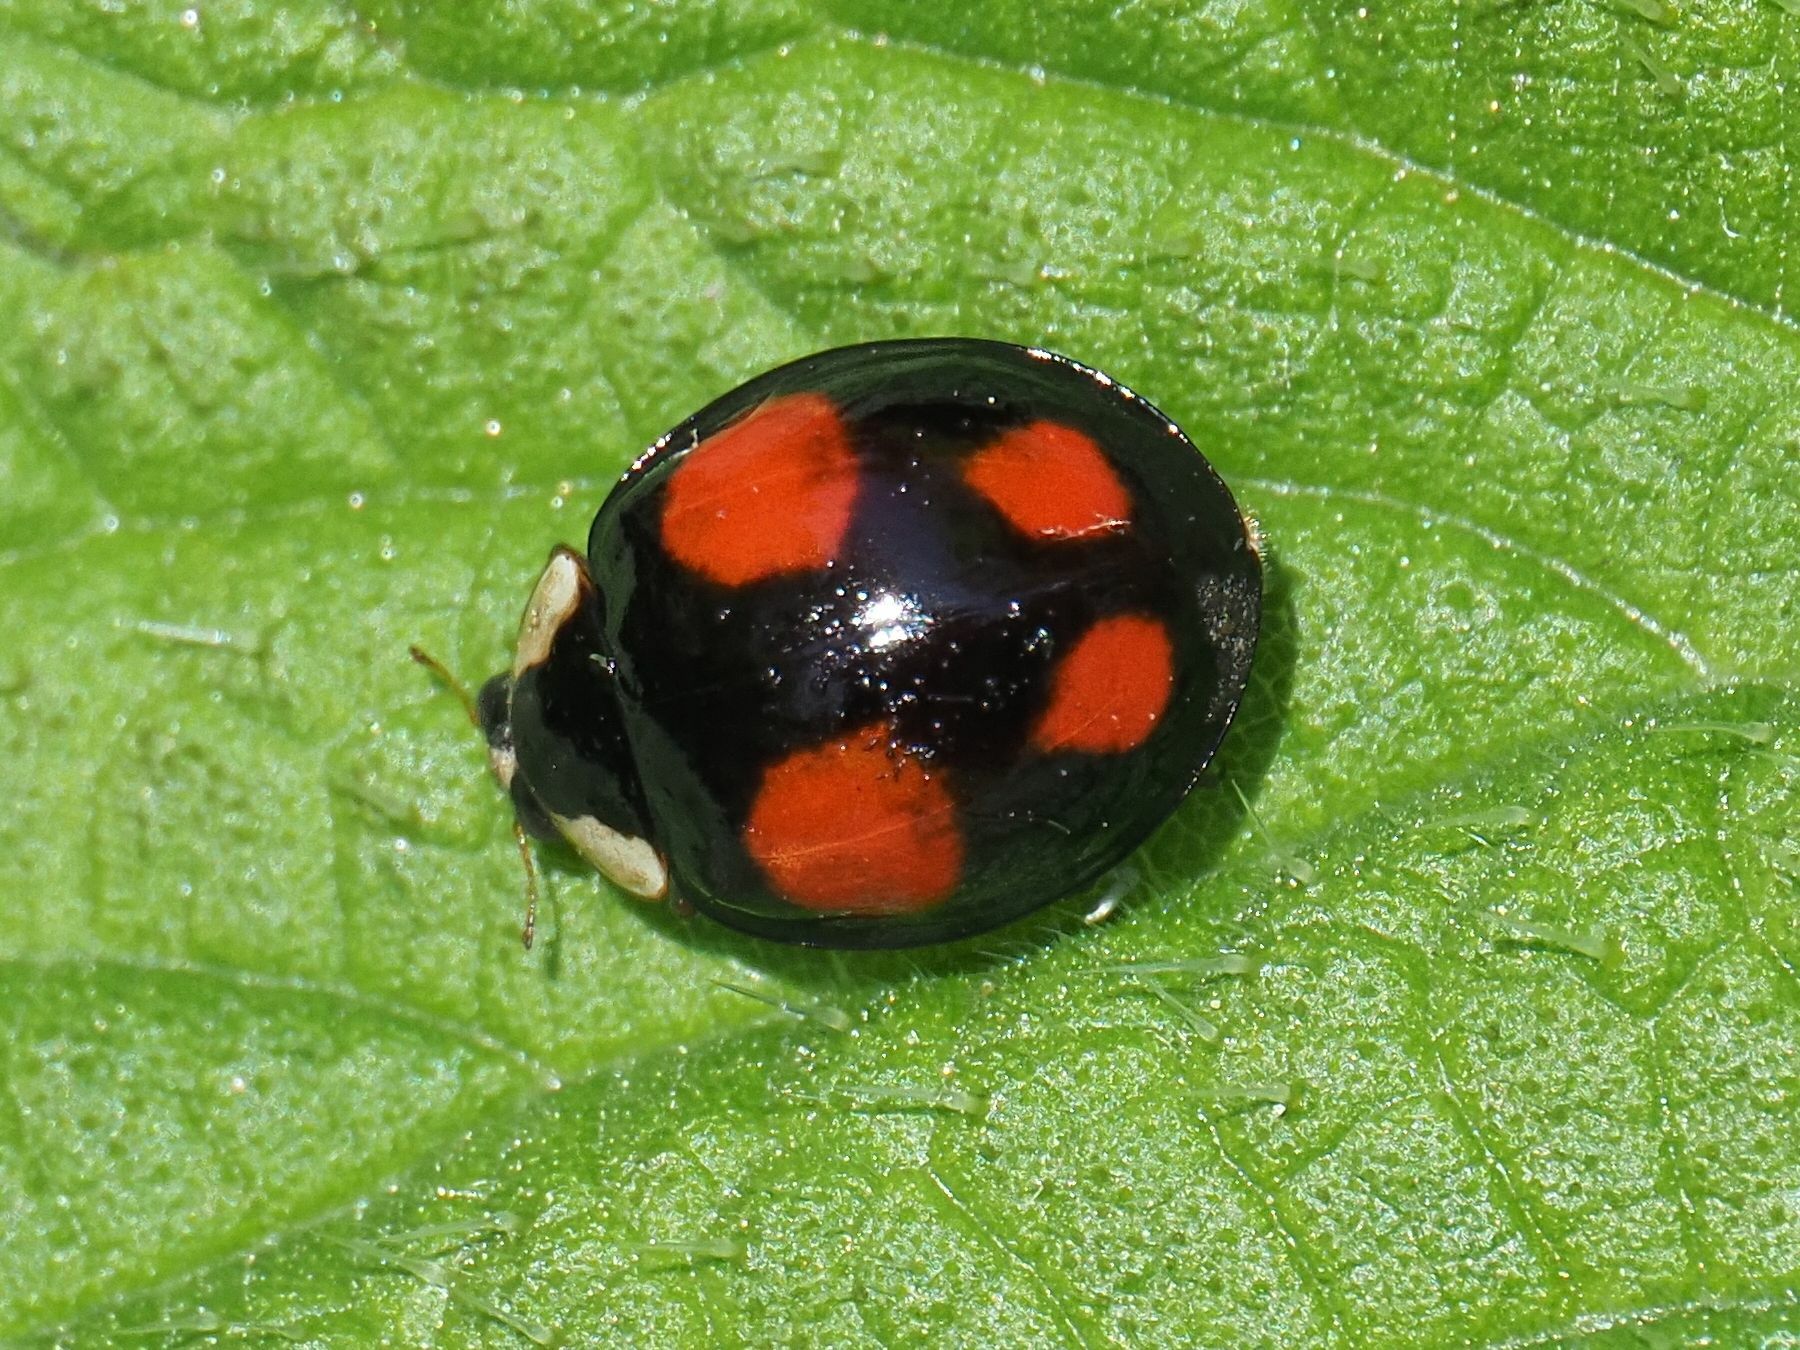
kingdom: Animalia
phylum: Arthropoda
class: Insecta
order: Coleoptera
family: Coccinellidae
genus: Harmonia
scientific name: Harmonia axyridis
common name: Harlequin ladybird
